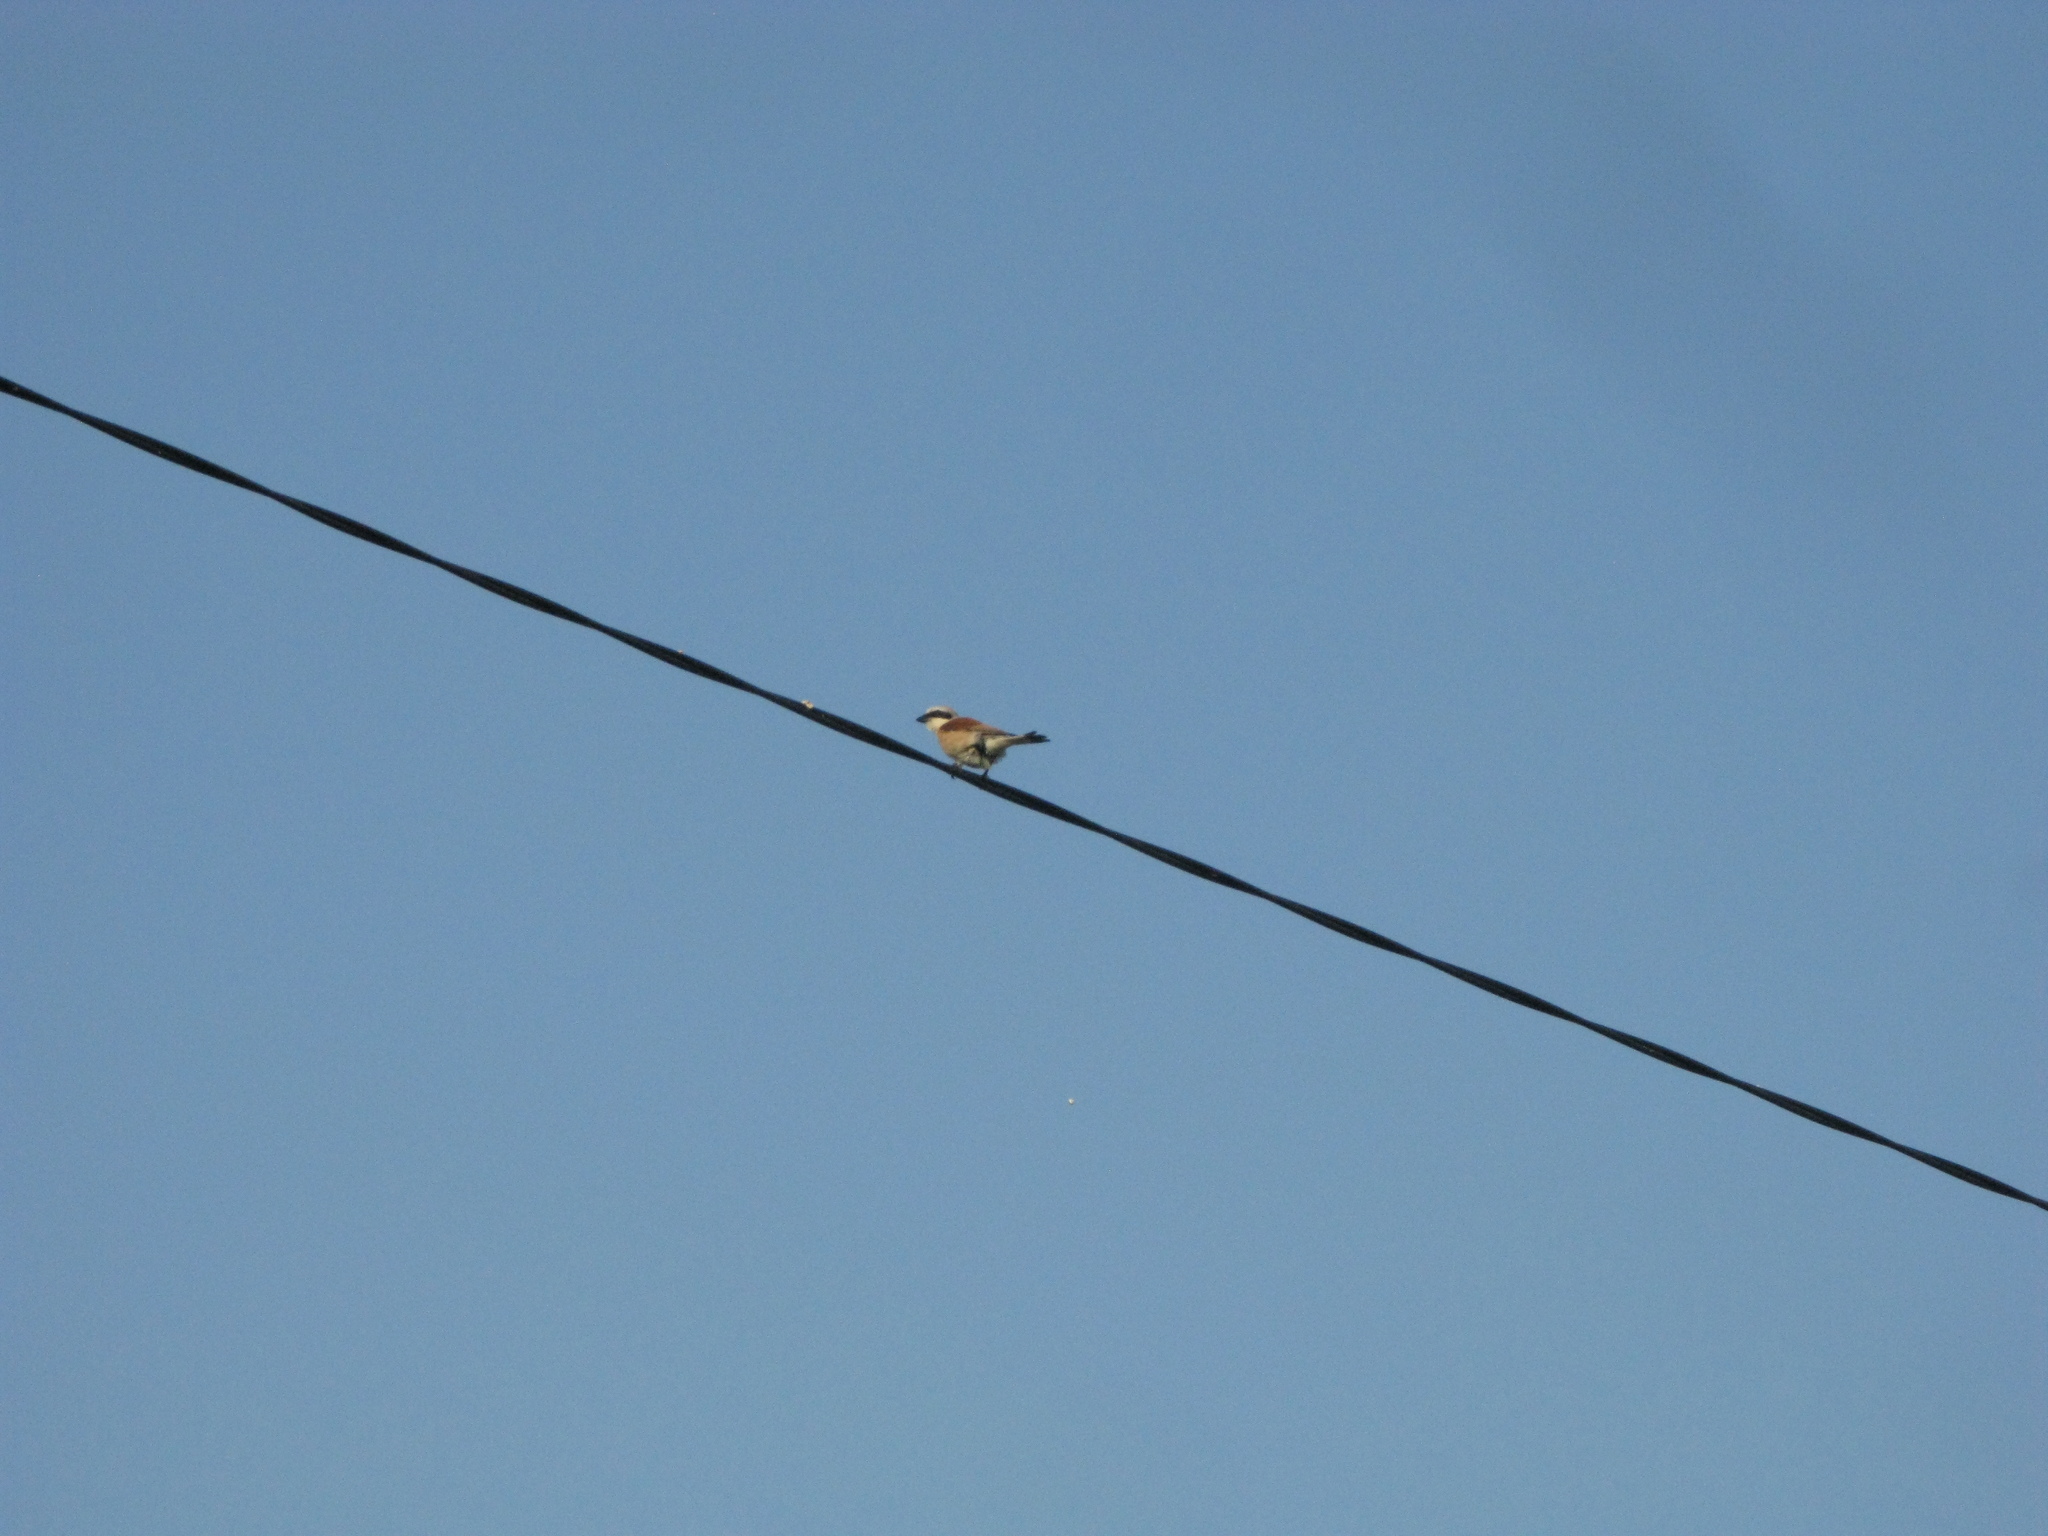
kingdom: Animalia
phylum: Chordata
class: Aves
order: Passeriformes
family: Laniidae
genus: Lanius
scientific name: Lanius collurio
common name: Red-backed shrike
